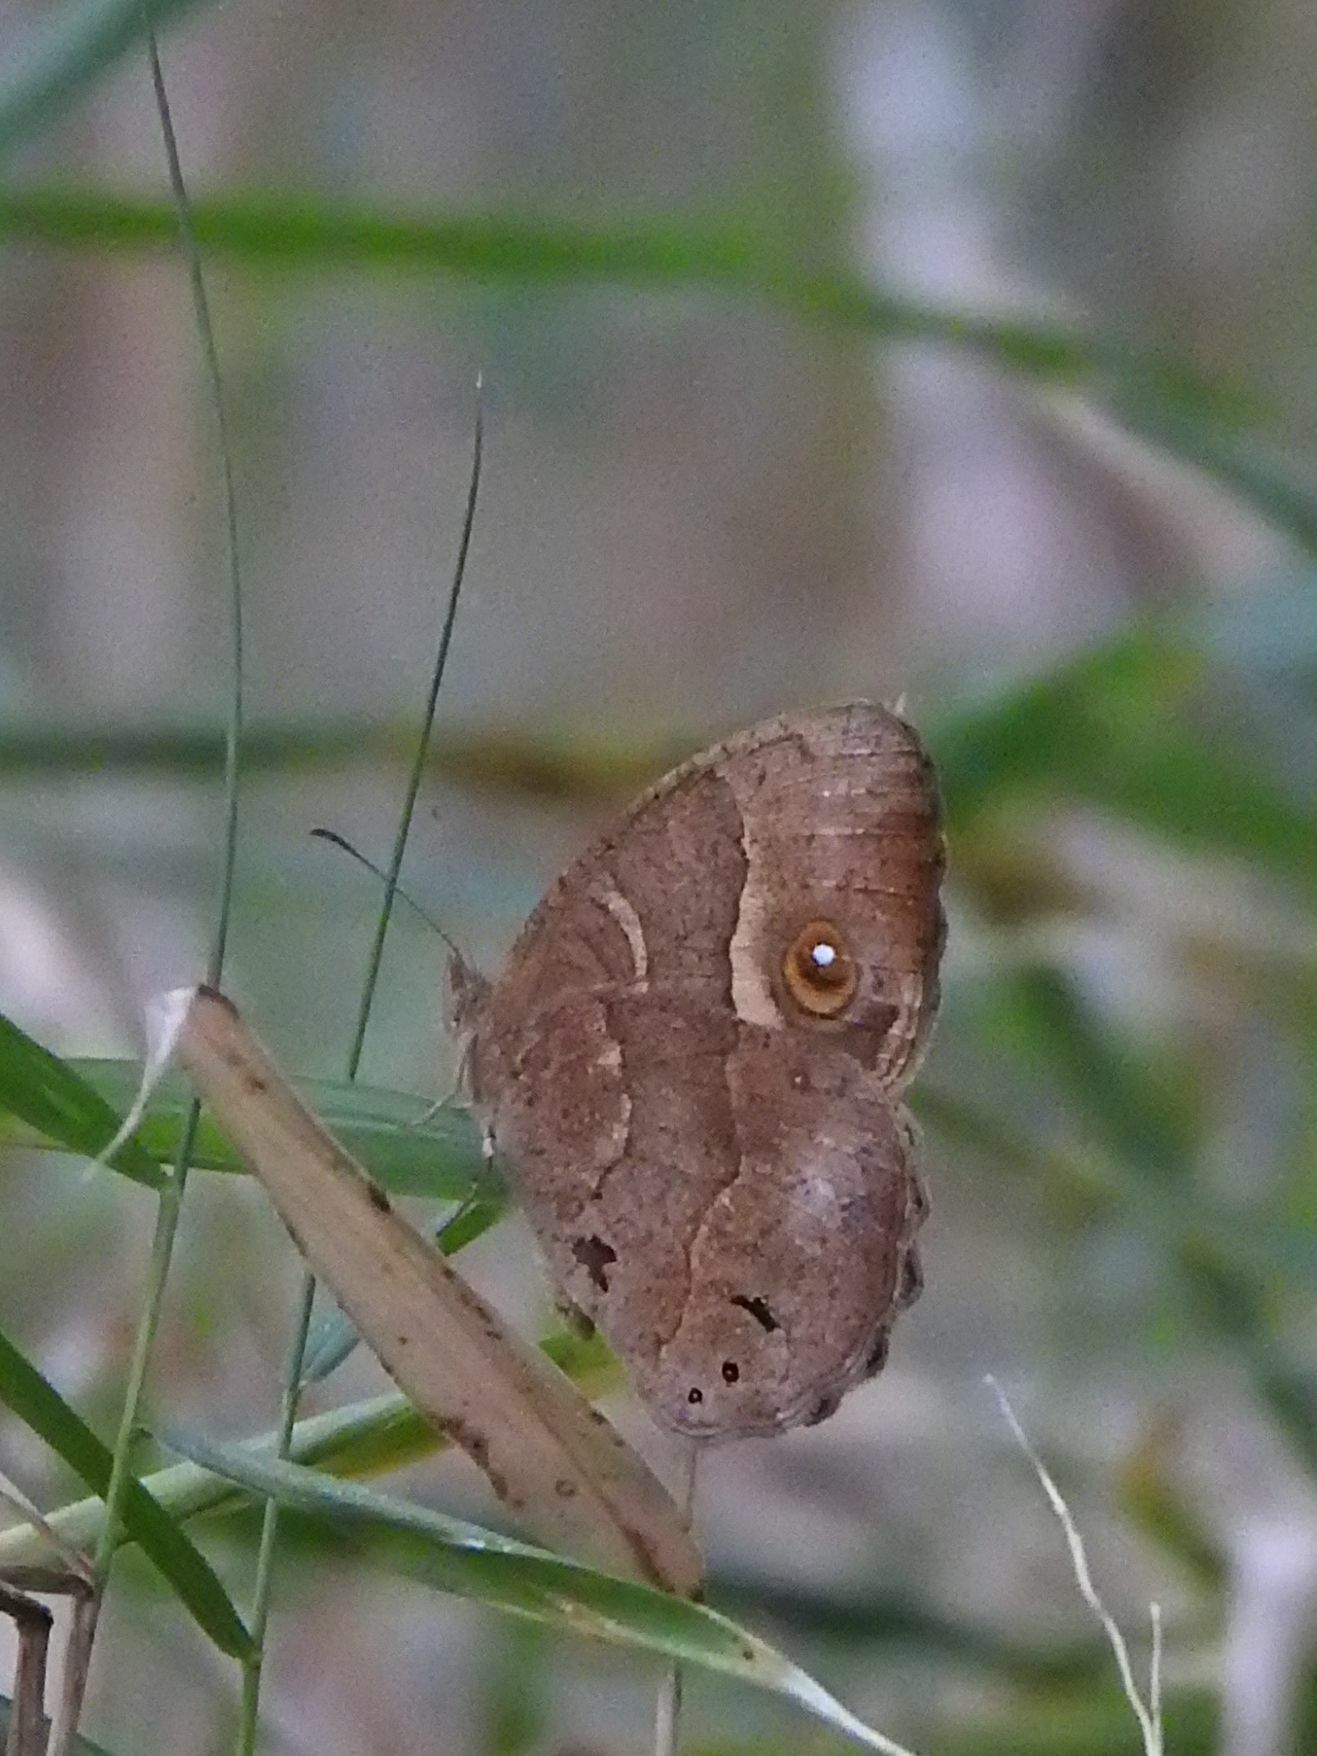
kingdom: Animalia
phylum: Arthropoda
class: Insecta
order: Lepidoptera
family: Nymphalidae
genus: Mycalesis
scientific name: Mycalesis anynana
